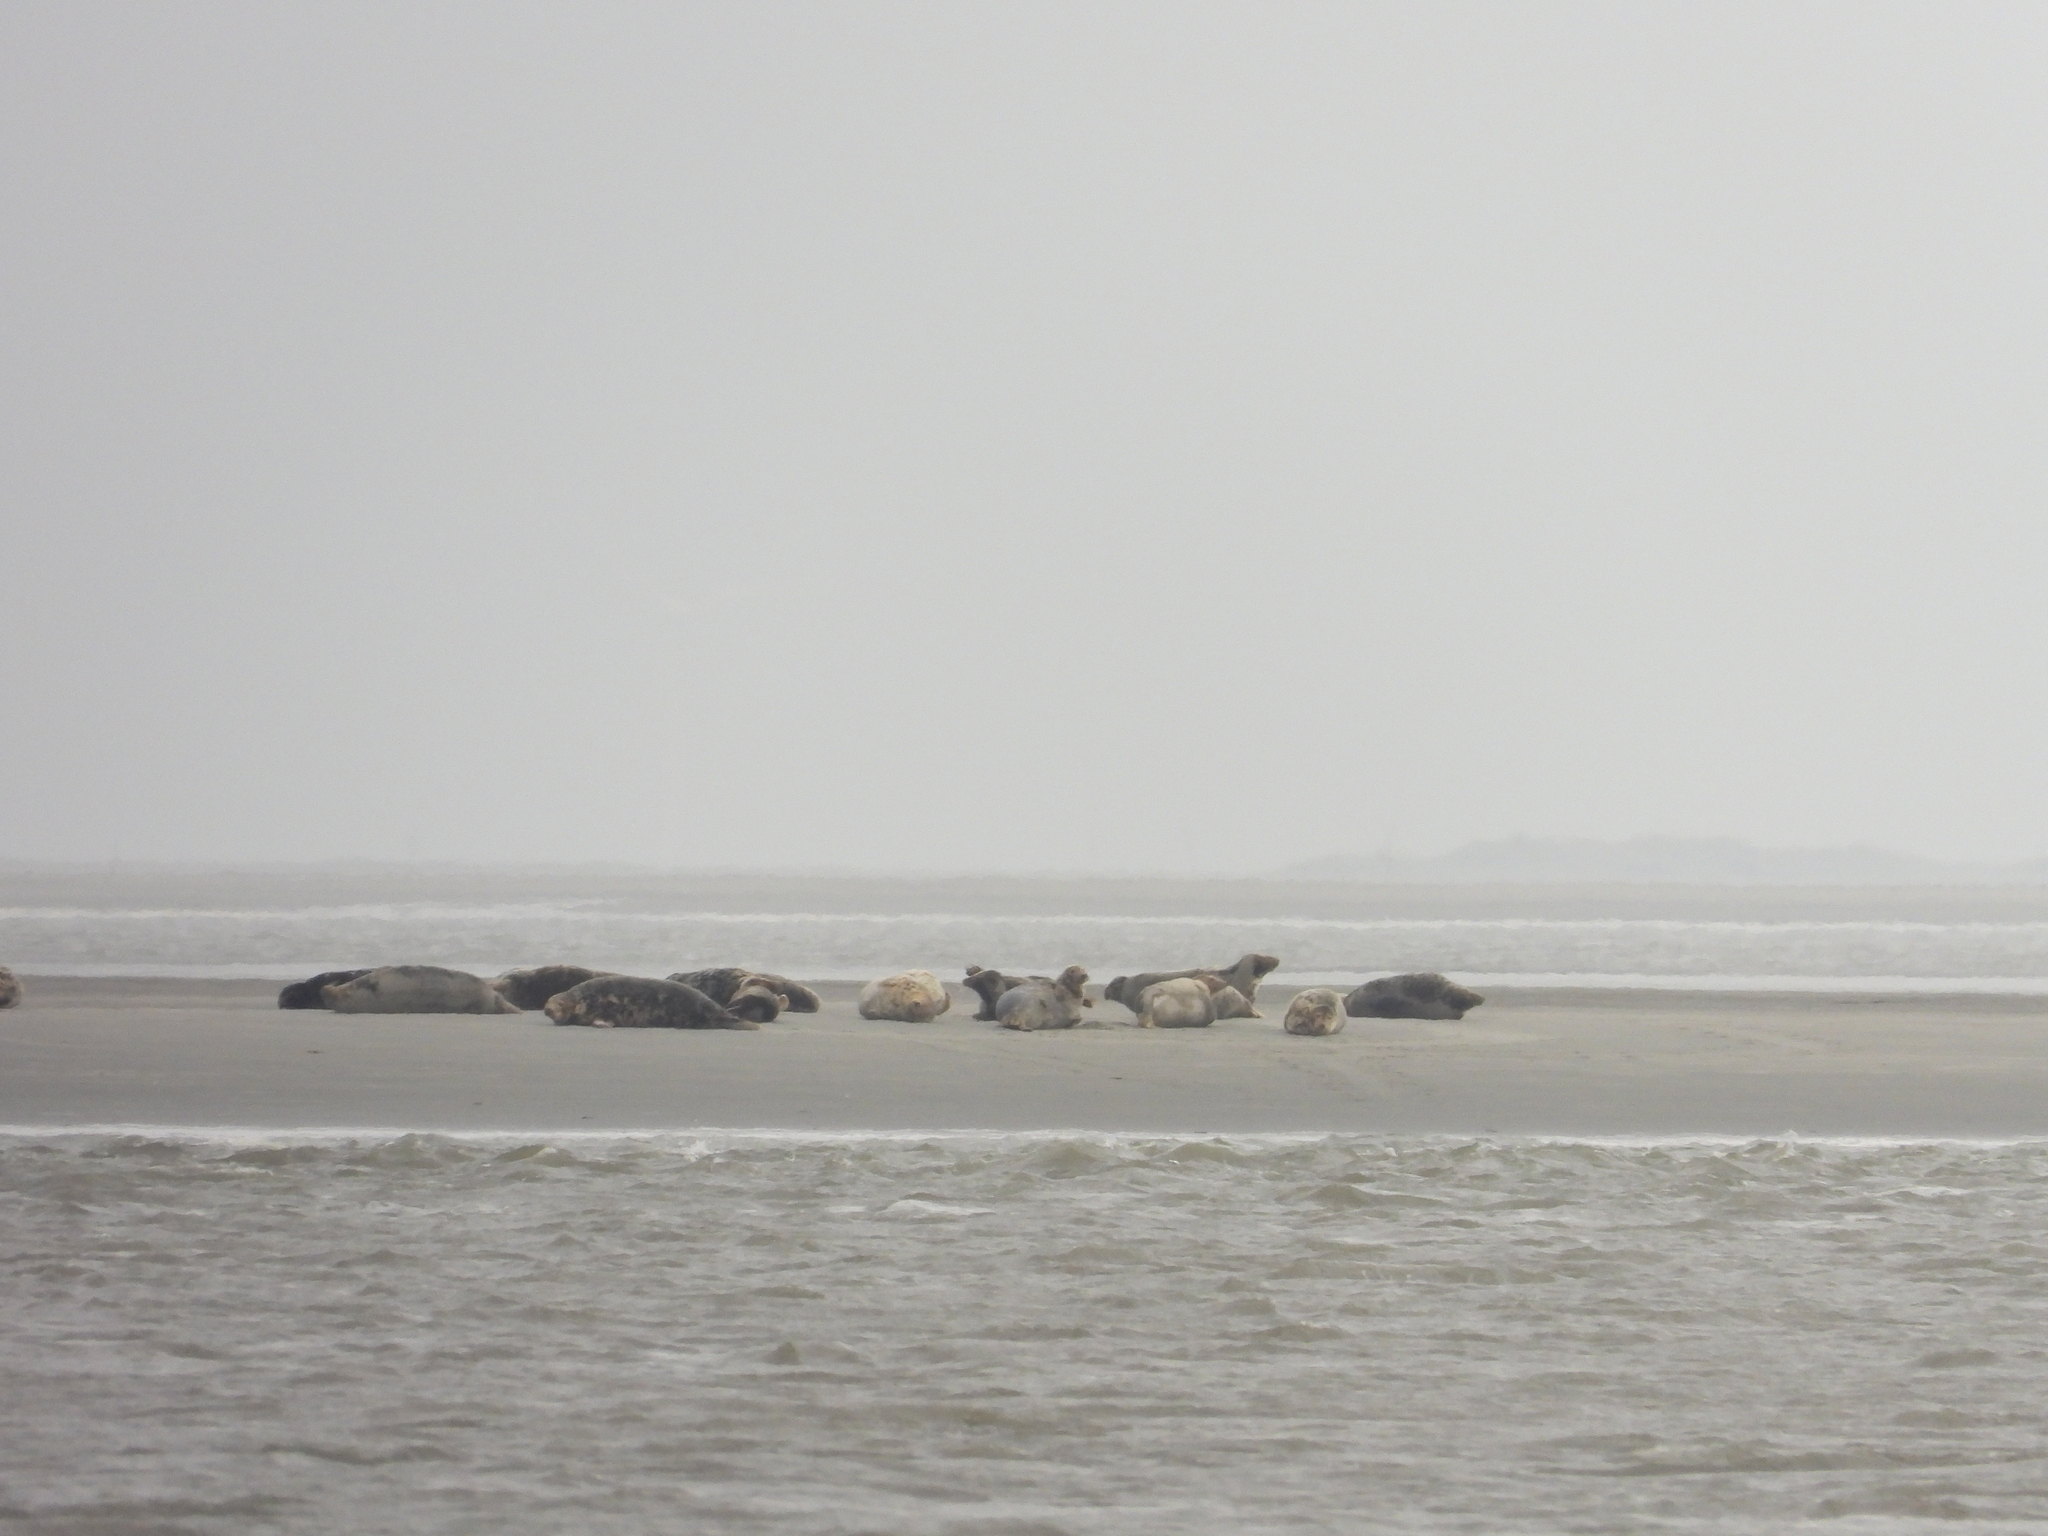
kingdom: Animalia
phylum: Chordata
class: Mammalia
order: Carnivora
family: Phocidae
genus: Halichoerus
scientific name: Halichoerus grypus
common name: Grey seal
